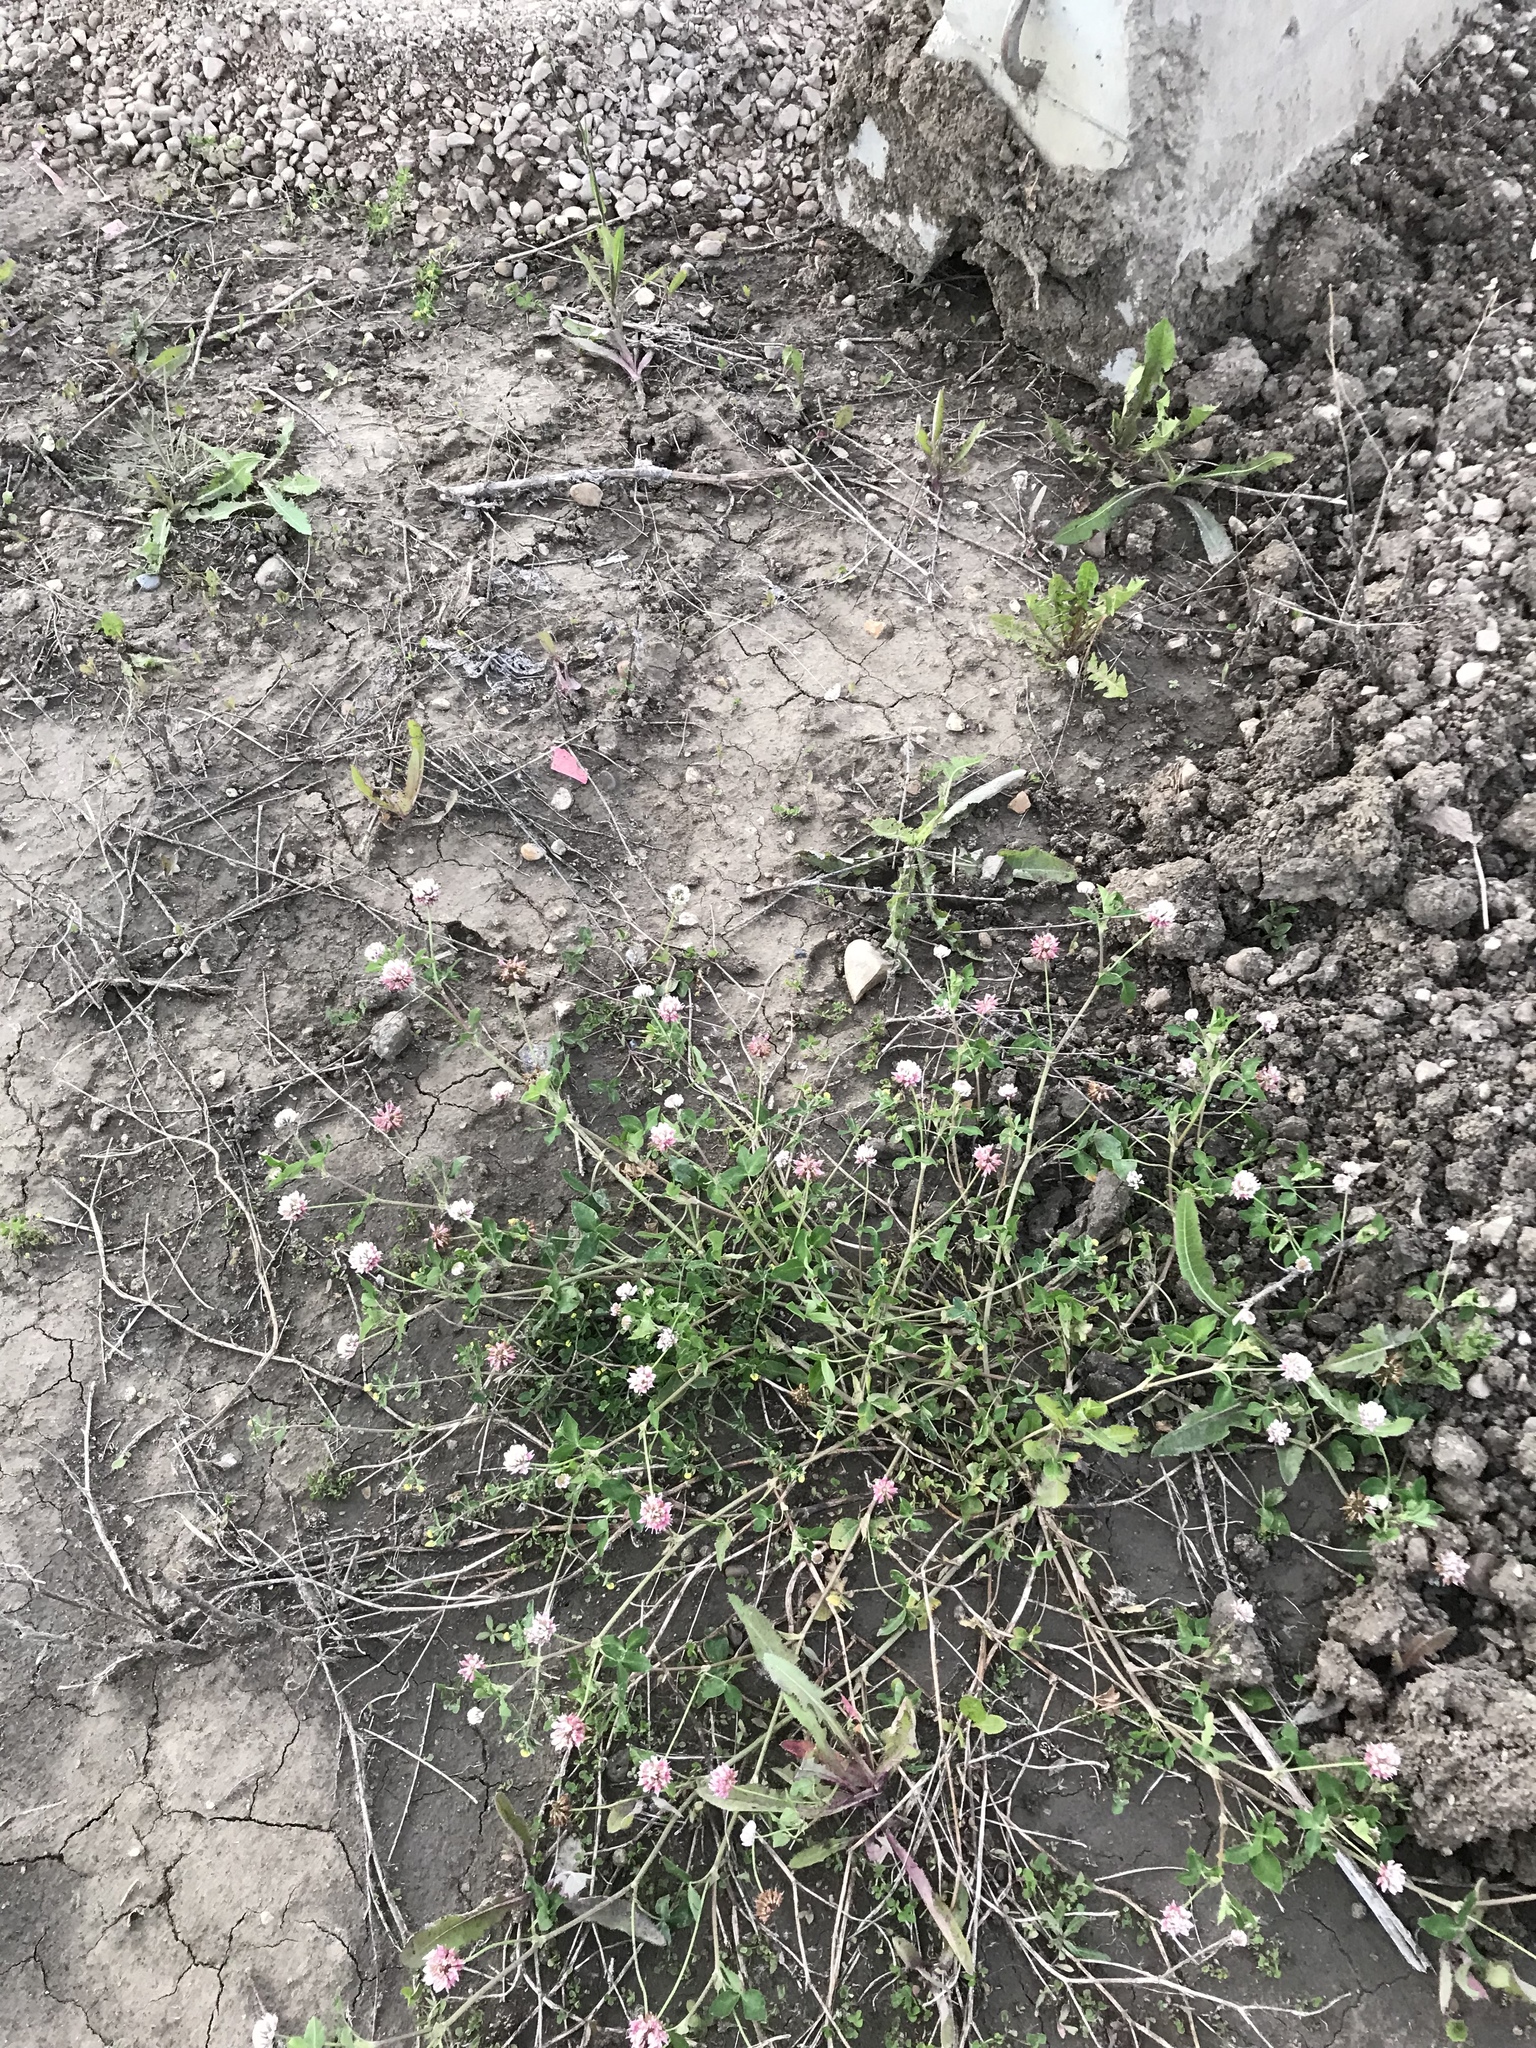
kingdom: Plantae
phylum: Tracheophyta
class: Magnoliopsida
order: Fabales
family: Fabaceae
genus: Trifolium
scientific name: Trifolium hybridum
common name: Alsike clover
